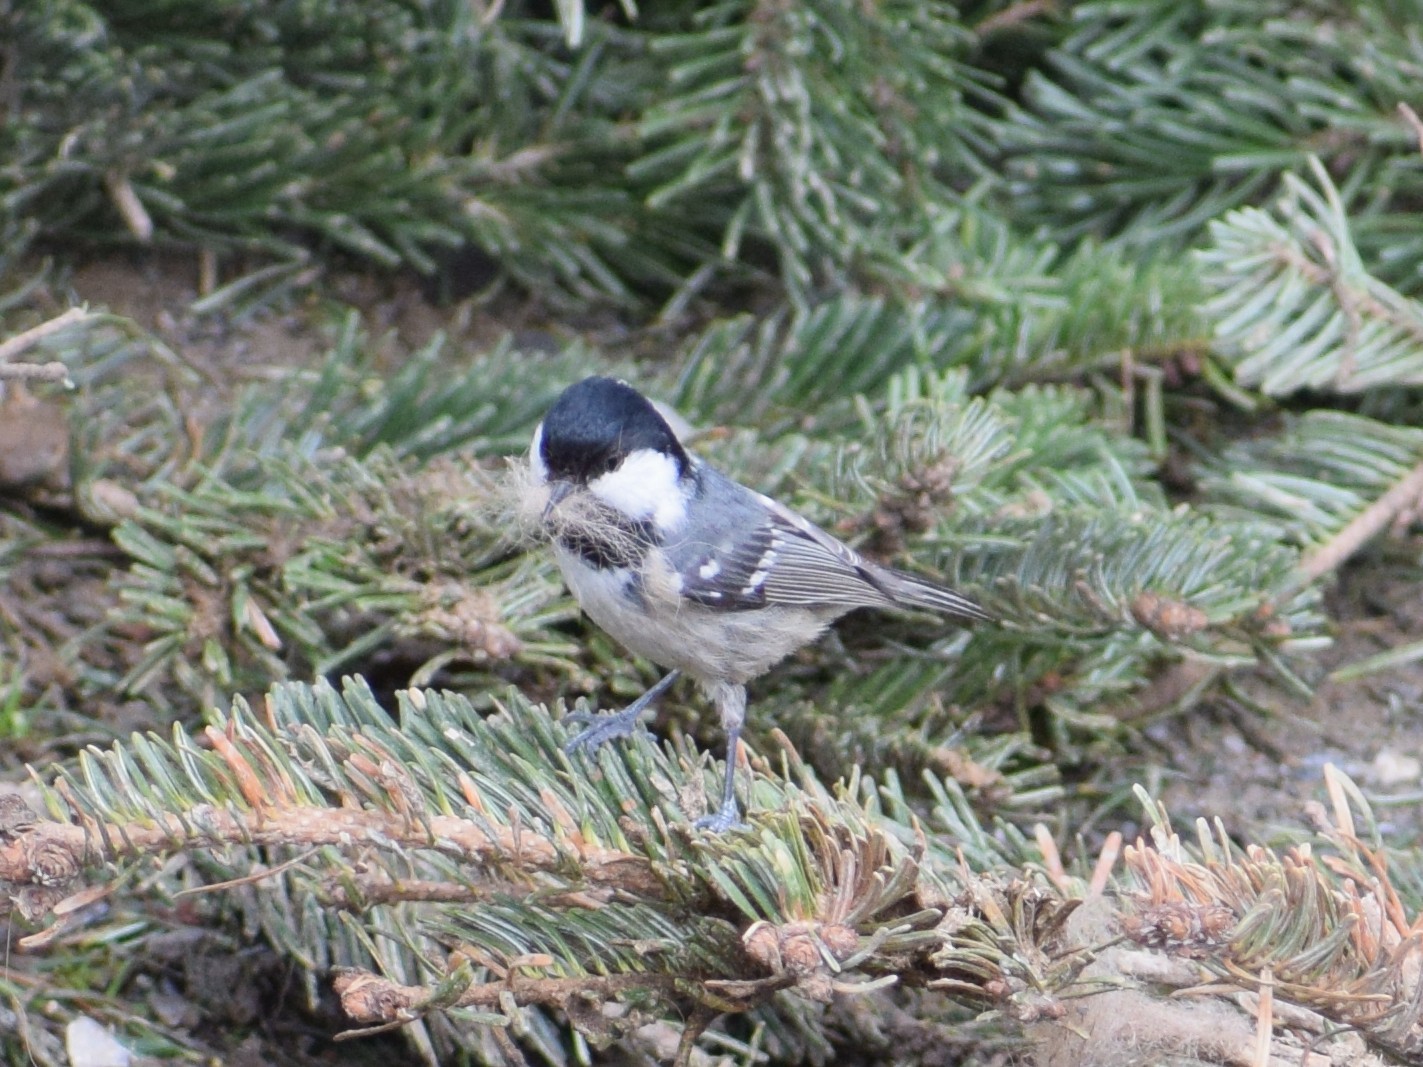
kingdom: Animalia
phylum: Chordata
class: Aves
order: Passeriformes
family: Paridae
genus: Periparus
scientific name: Periparus ater
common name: Coal tit
